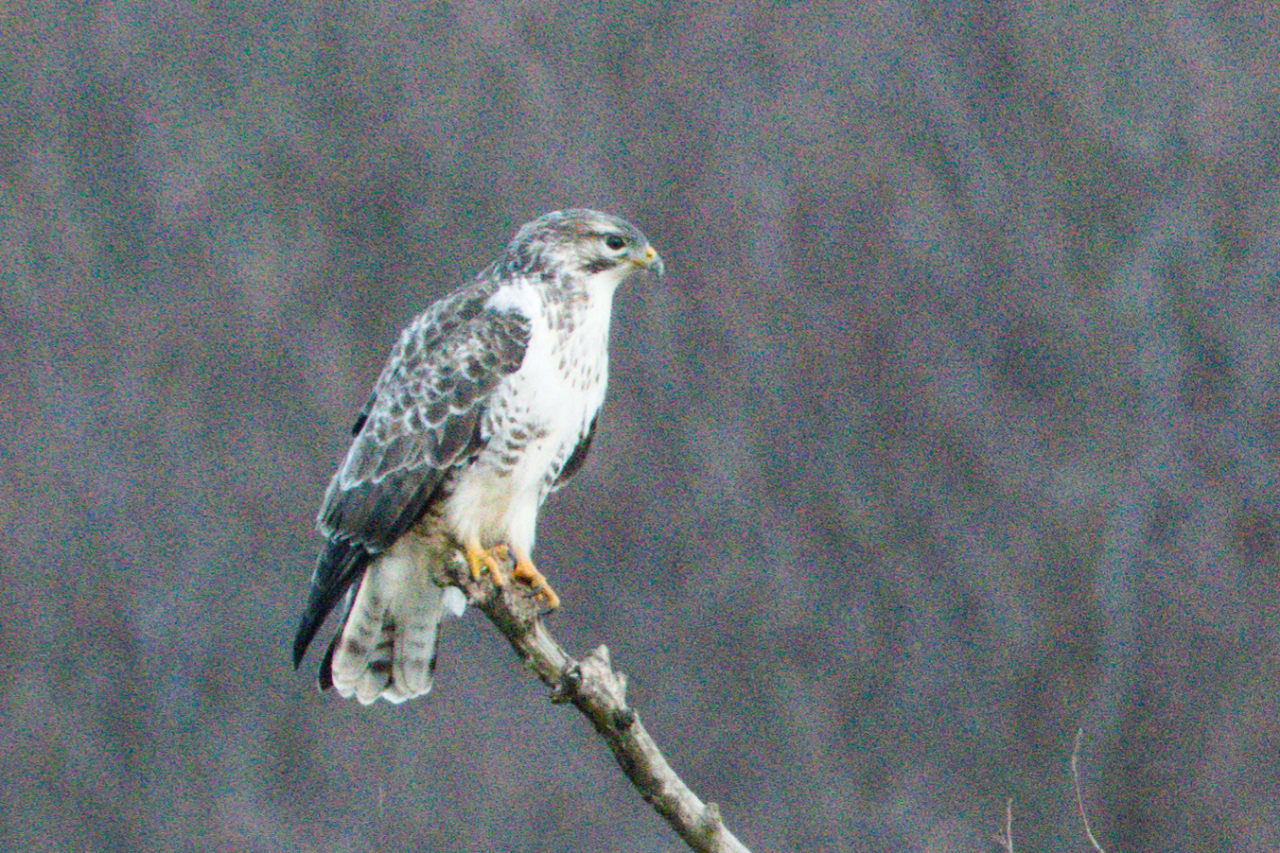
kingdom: Animalia
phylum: Chordata
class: Aves
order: Accipitriformes
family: Accipitridae
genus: Buteo
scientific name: Buteo buteo
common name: Common buzzard
